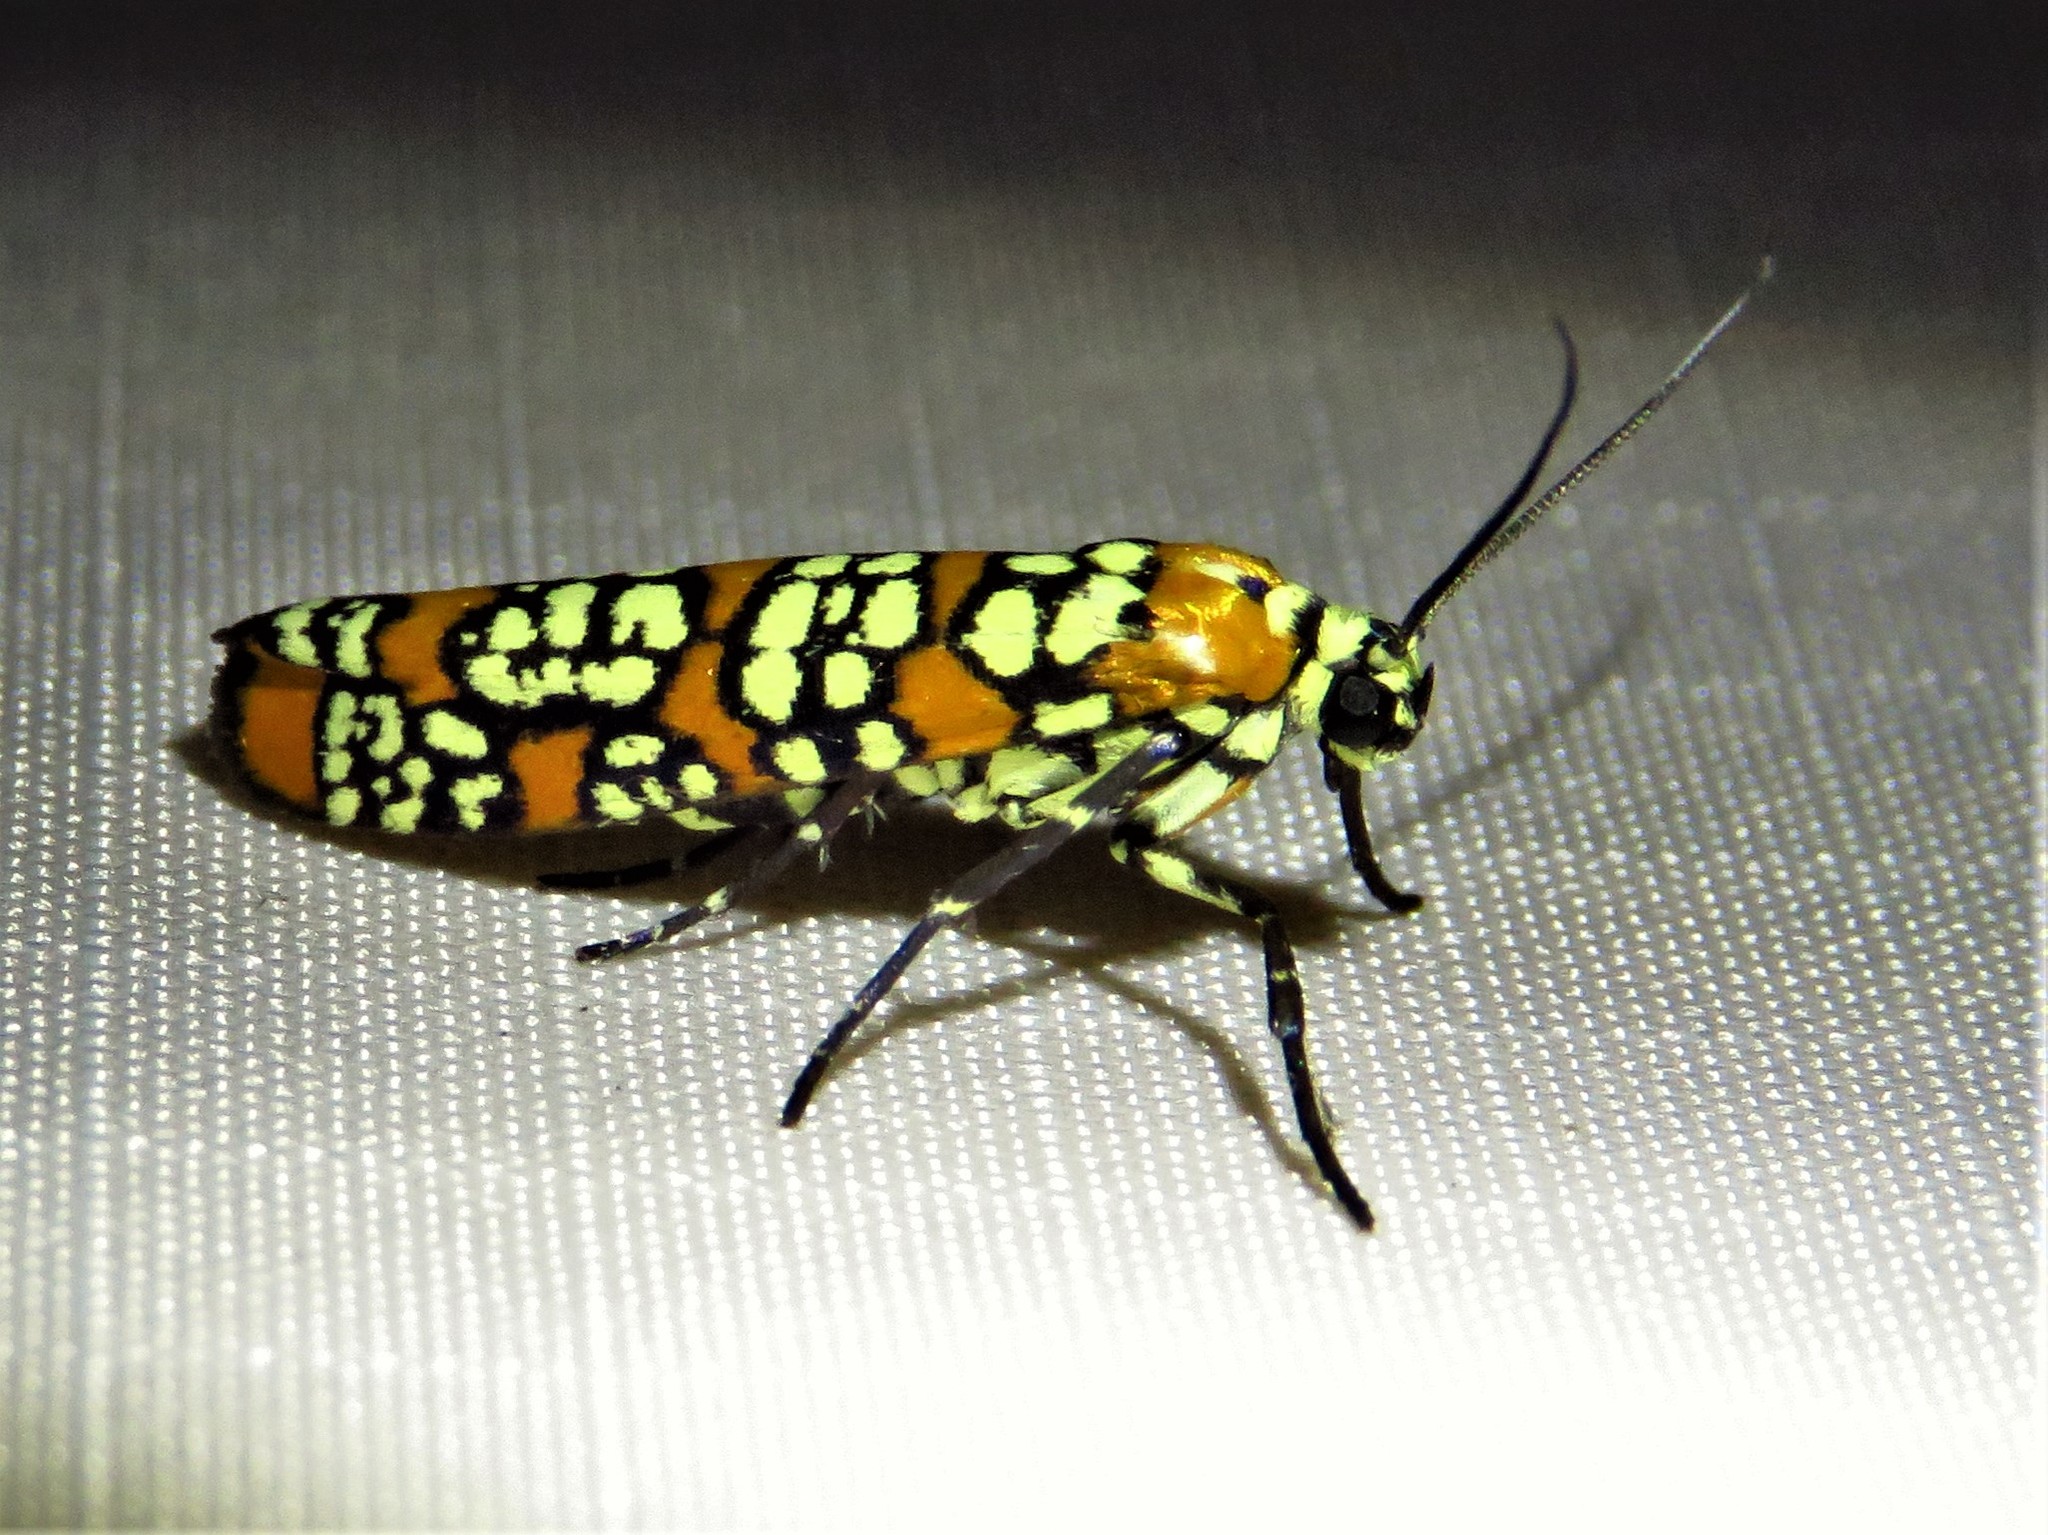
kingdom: Animalia
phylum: Arthropoda
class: Insecta
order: Lepidoptera
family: Attevidae
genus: Atteva
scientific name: Atteva punctella
